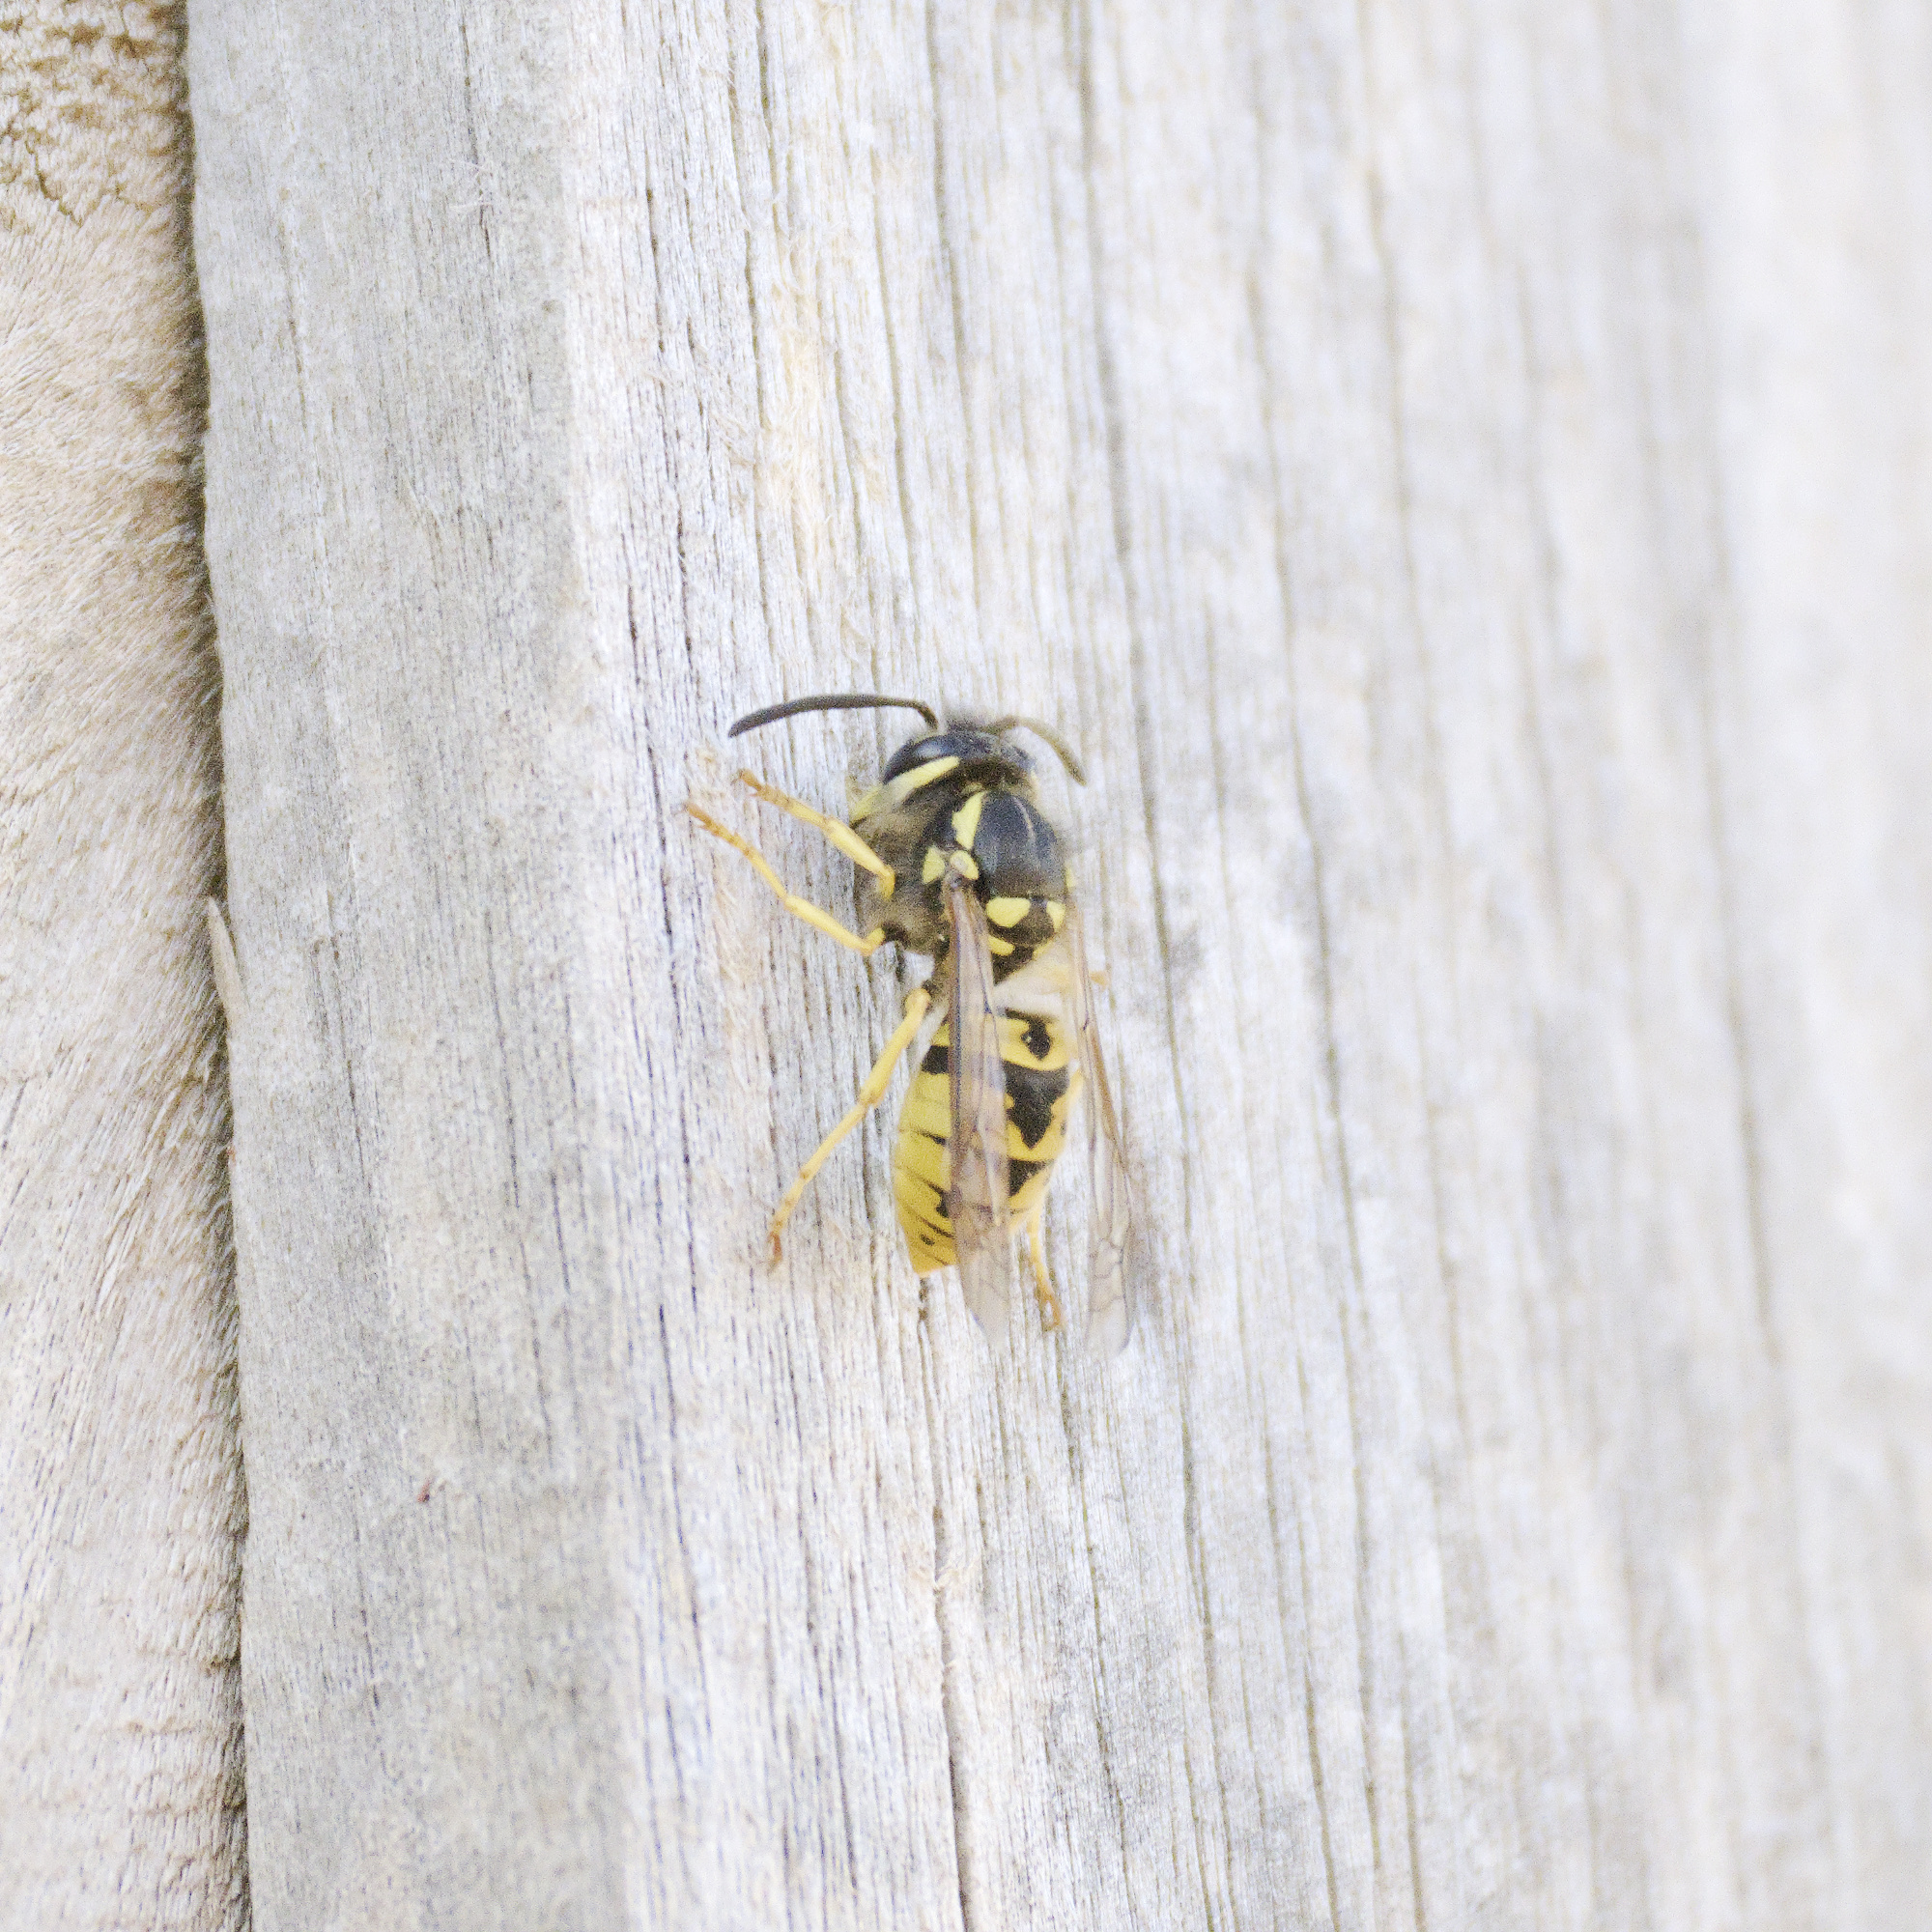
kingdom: Animalia
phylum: Arthropoda
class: Insecta
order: Hymenoptera
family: Vespidae
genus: Vespula
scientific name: Vespula germanica
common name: German wasp
